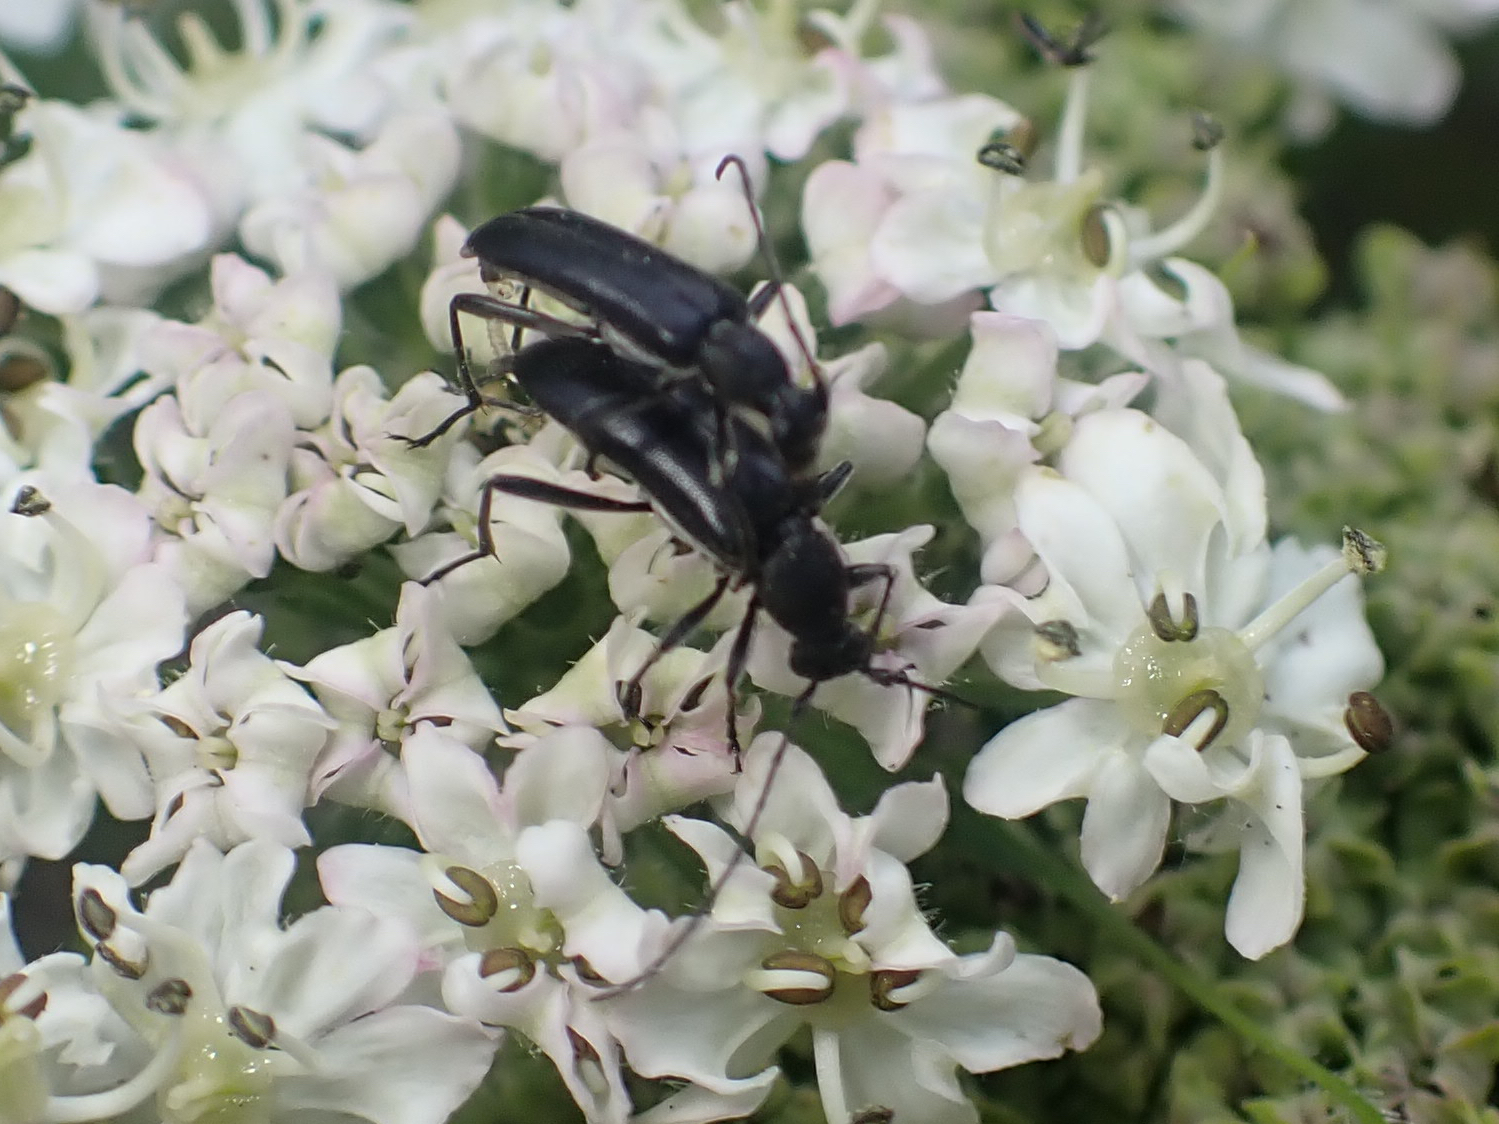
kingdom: Animalia
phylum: Arthropoda
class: Insecta
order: Coleoptera
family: Cerambycidae
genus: Grammoptera
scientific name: Grammoptera subargentata
